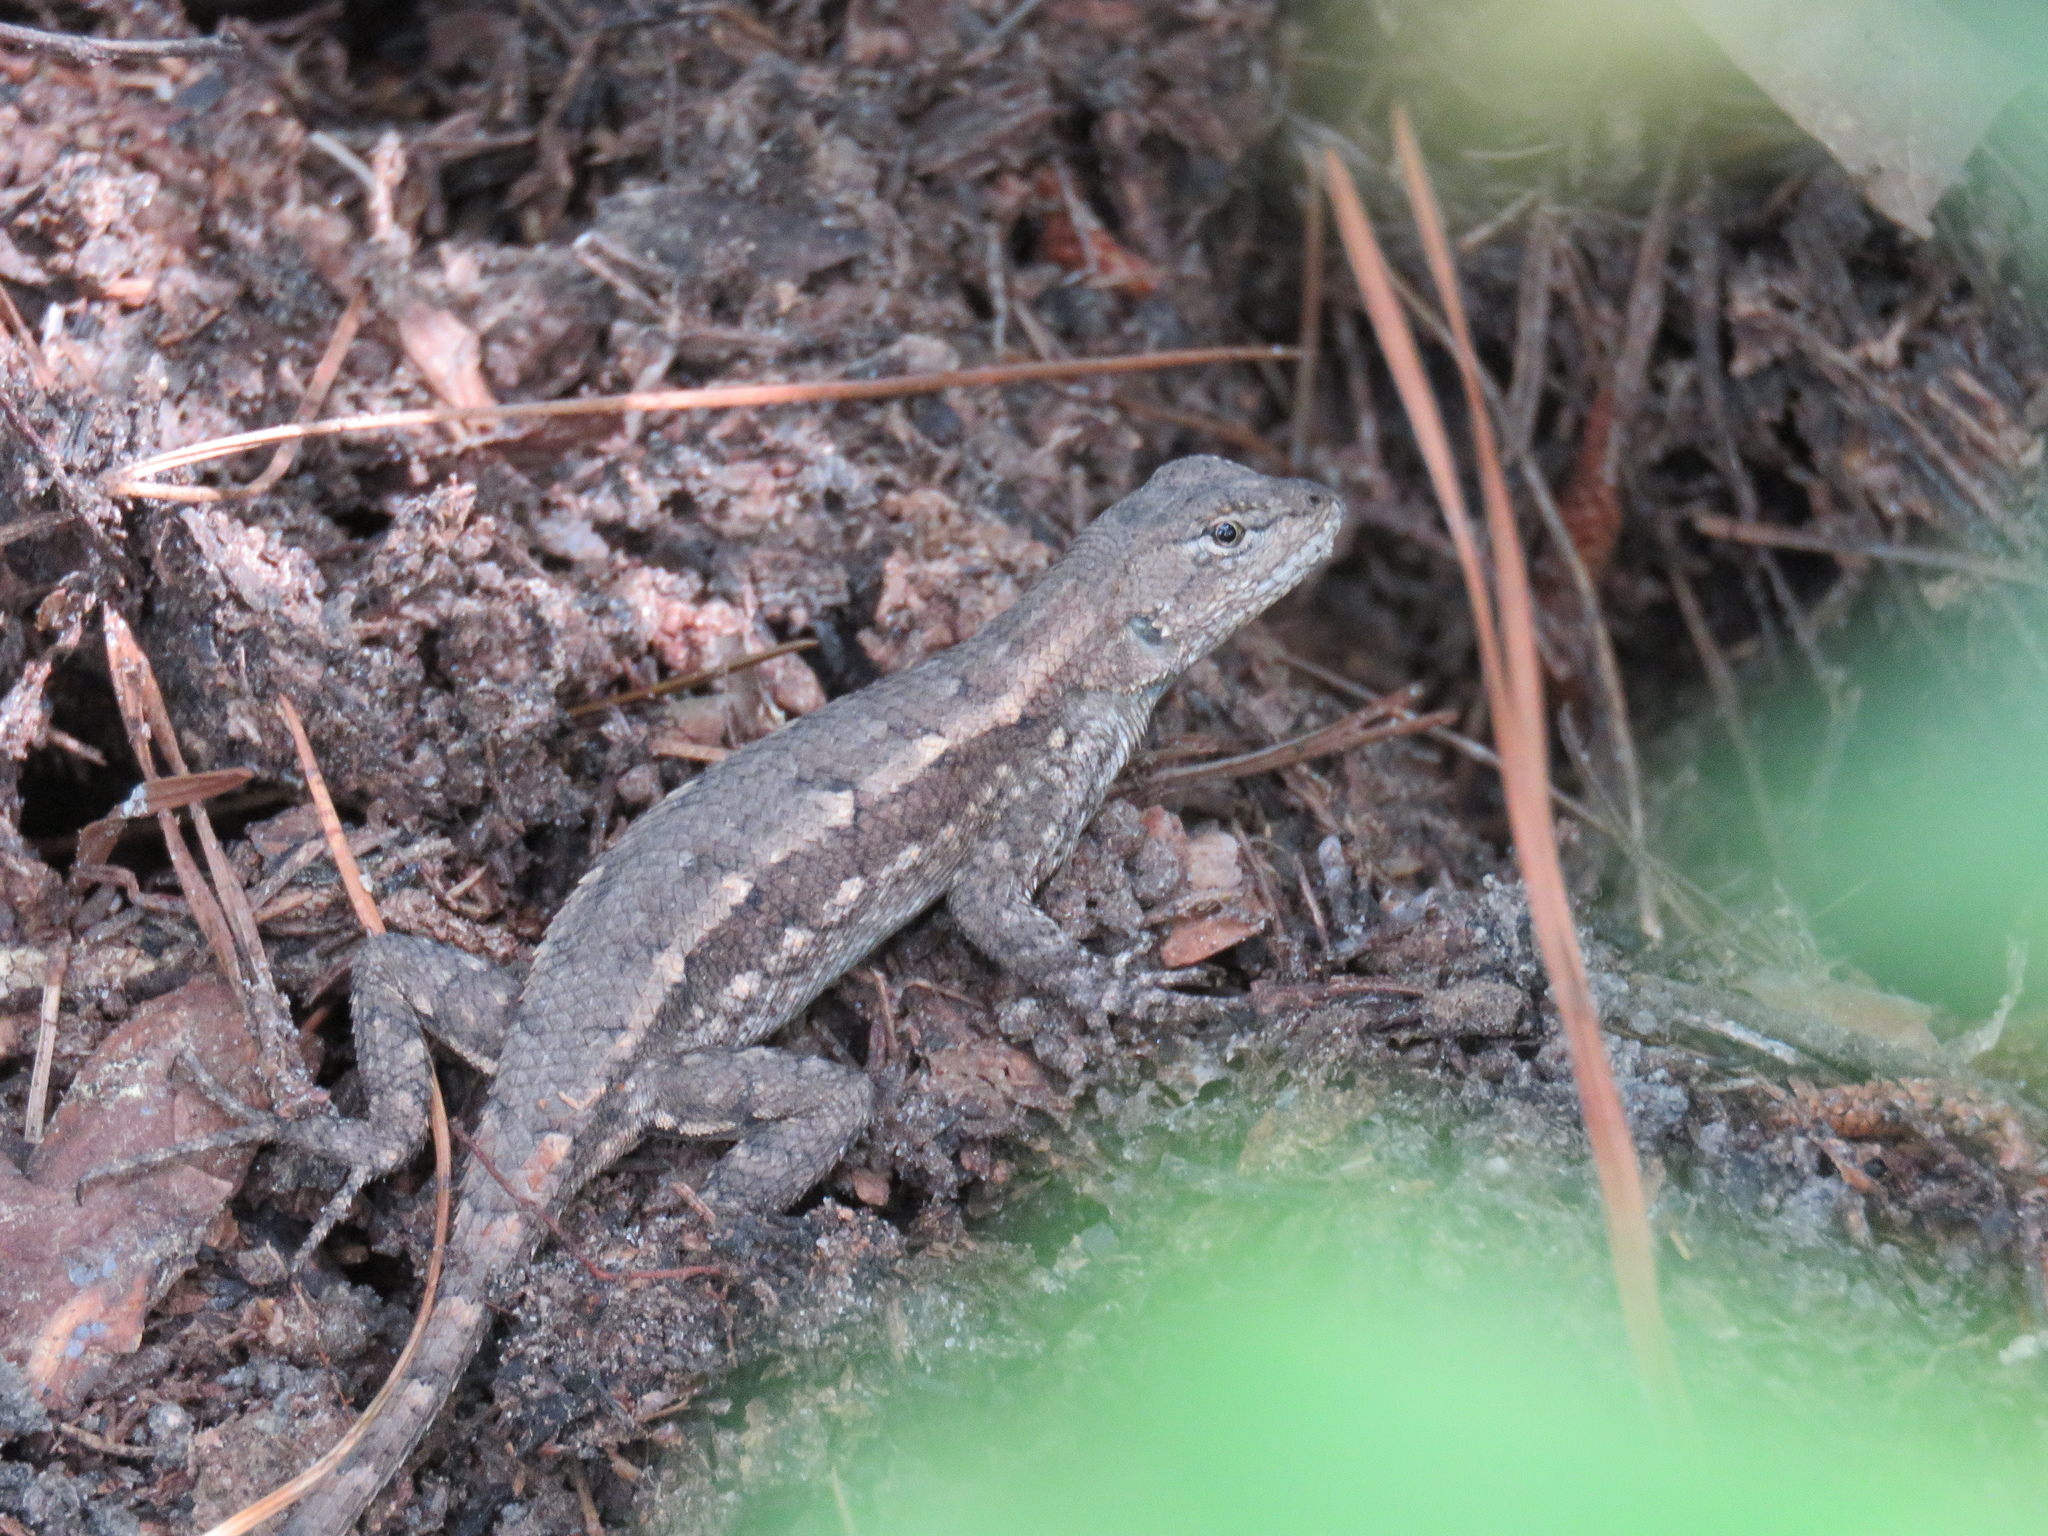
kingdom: Animalia
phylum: Chordata
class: Squamata
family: Phrynosomatidae
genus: Sceloporus
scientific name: Sceloporus consobrinus
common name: Southern prairie lizard
